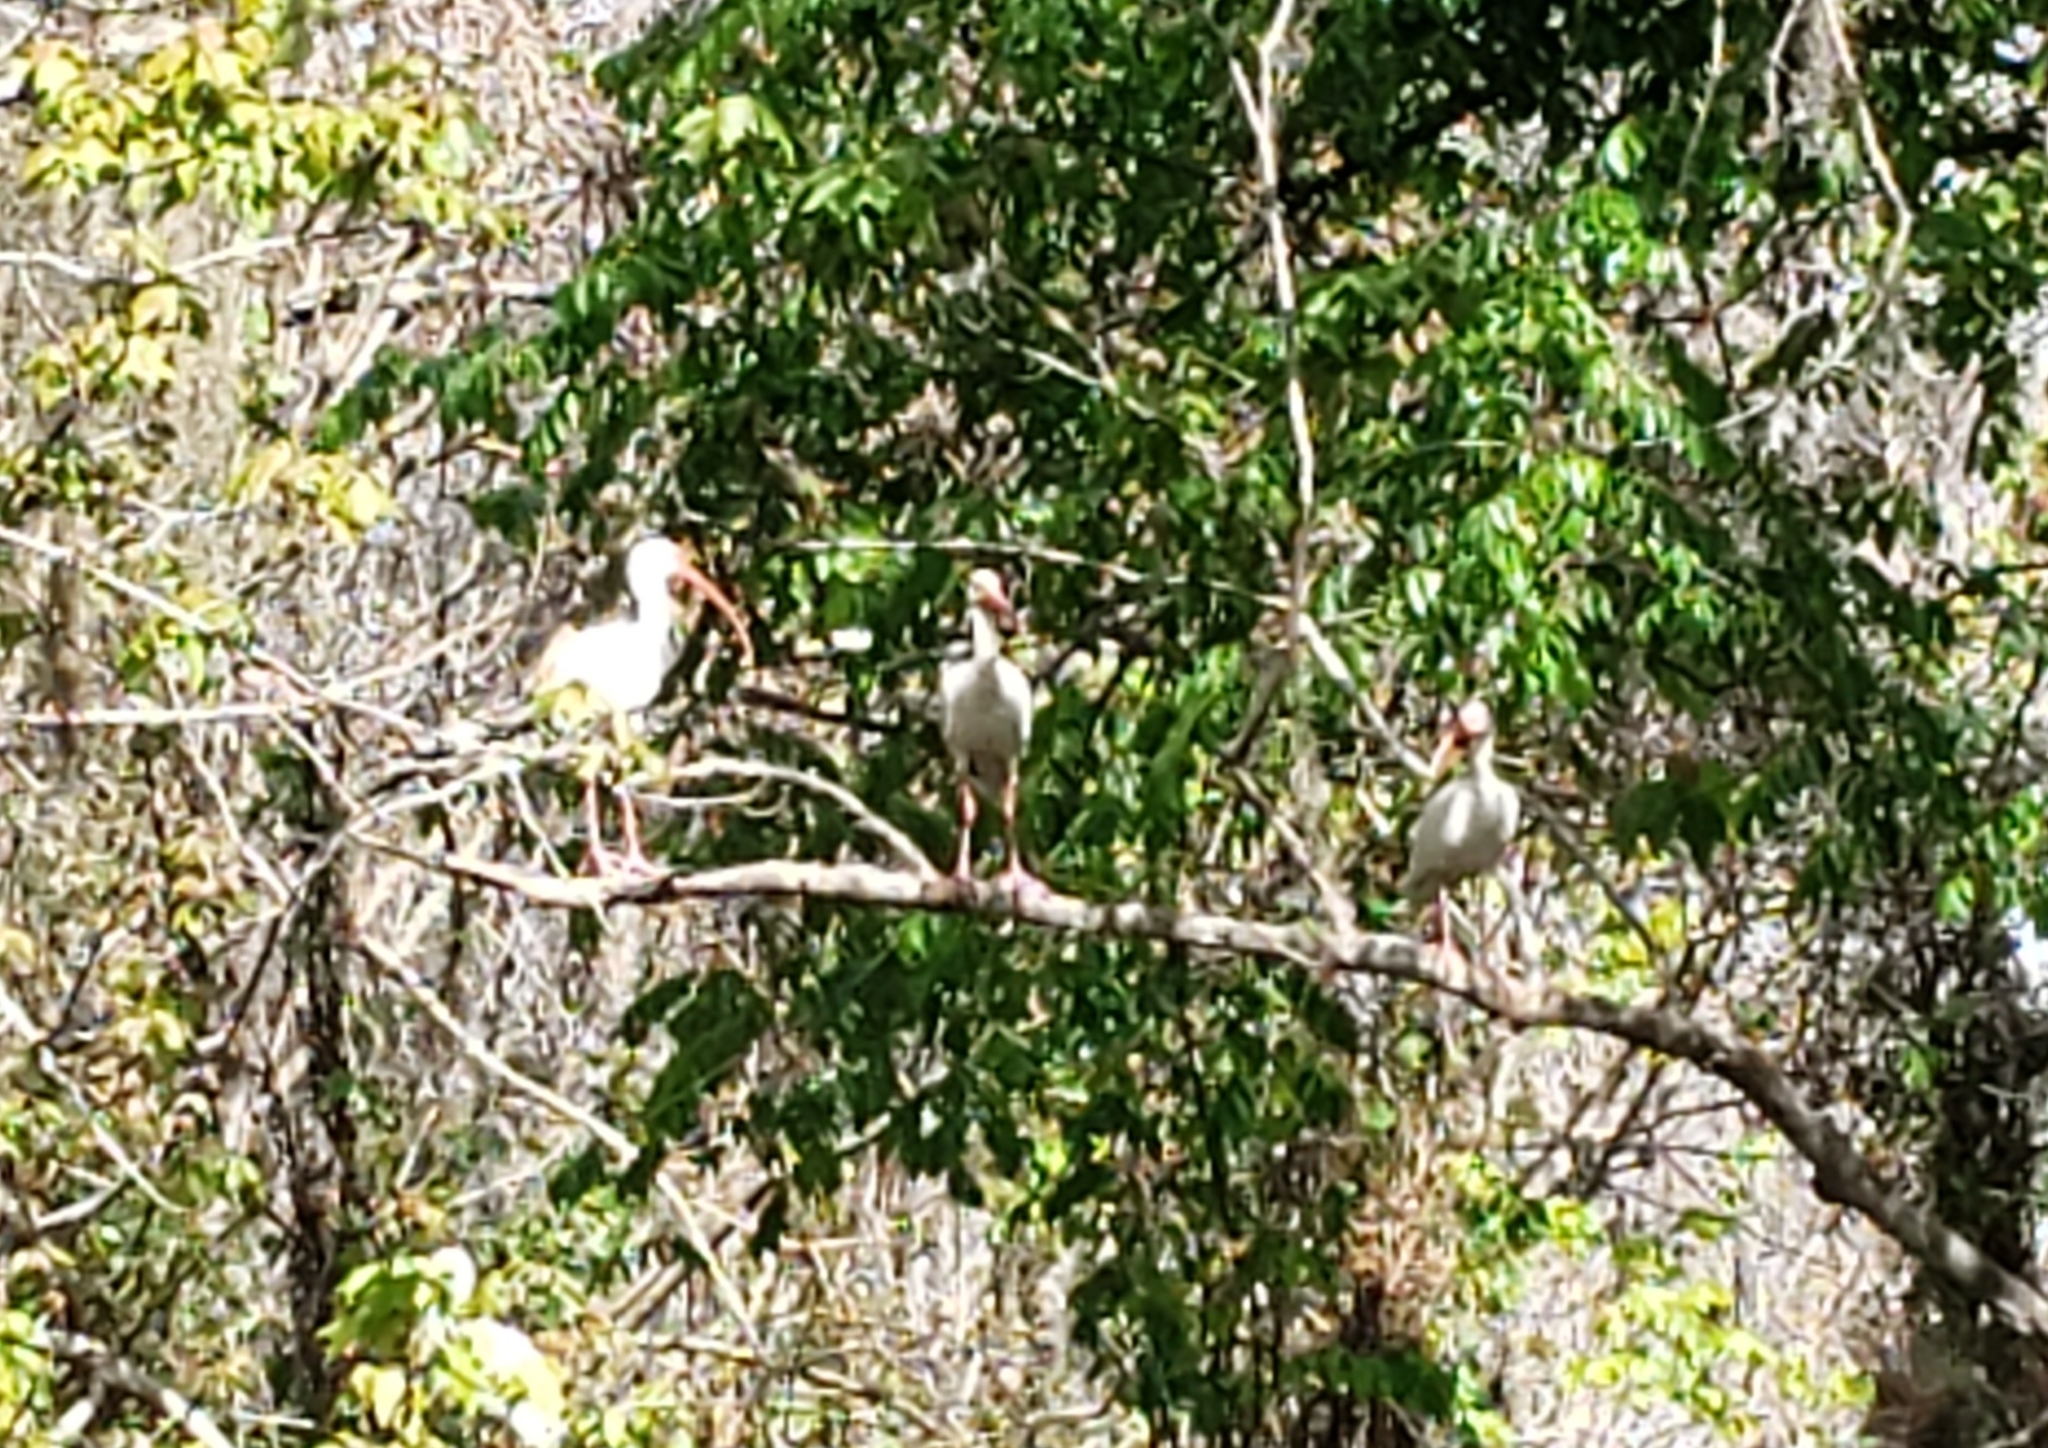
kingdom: Animalia
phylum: Chordata
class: Aves
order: Pelecaniformes
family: Threskiornithidae
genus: Eudocimus
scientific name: Eudocimus albus
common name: White ibis
